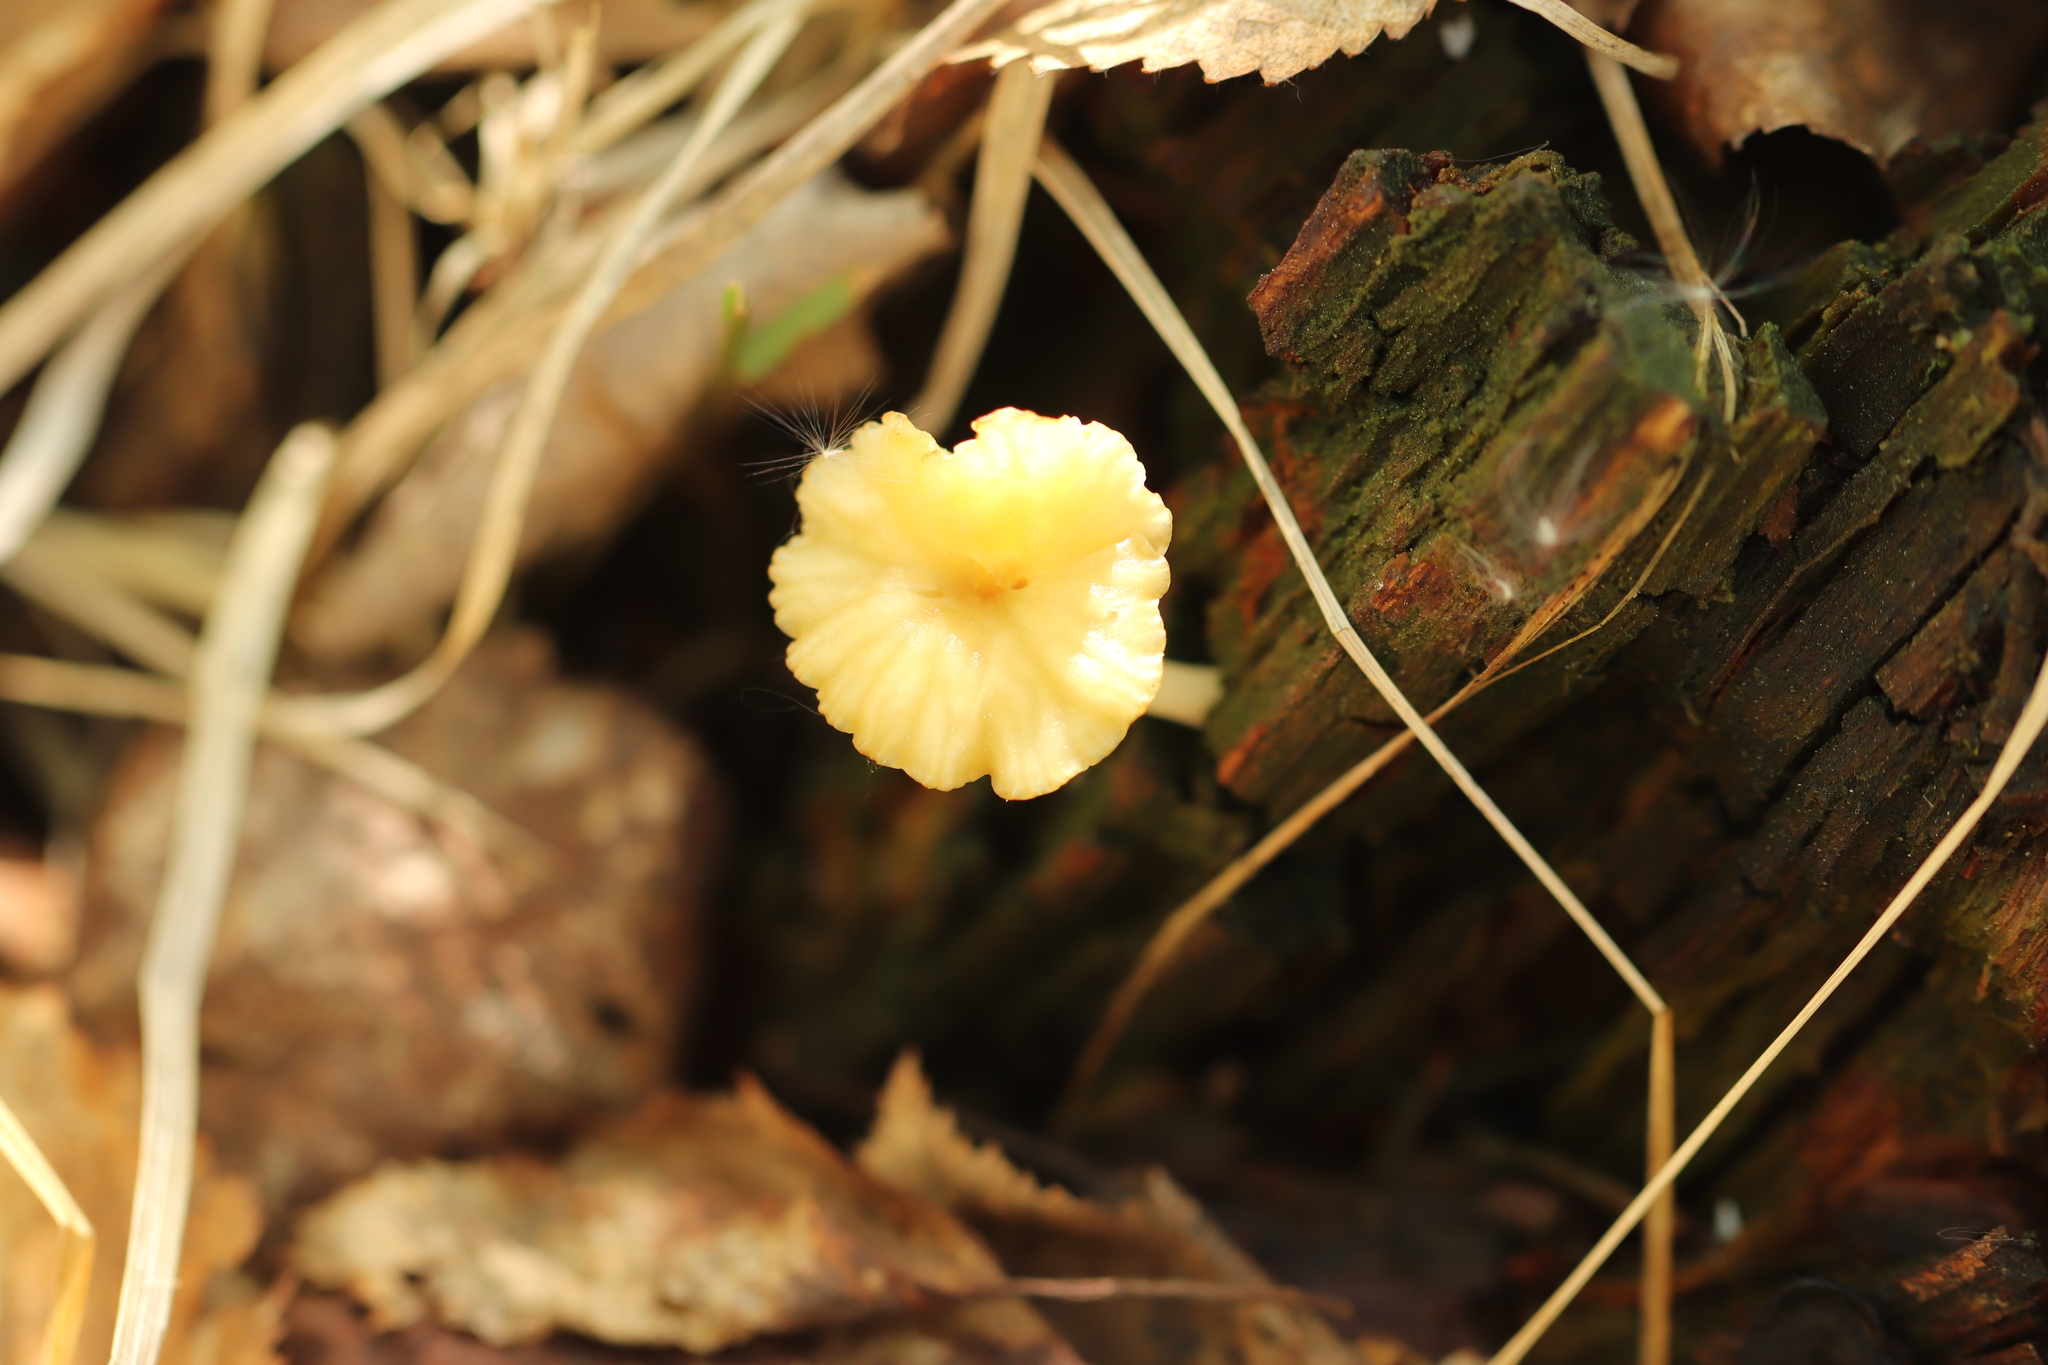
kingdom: Fungi
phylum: Basidiomycota
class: Agaricomycetes
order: Agaricales
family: Hygrophoraceae
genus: Lichenomphalia
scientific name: Lichenomphalia
